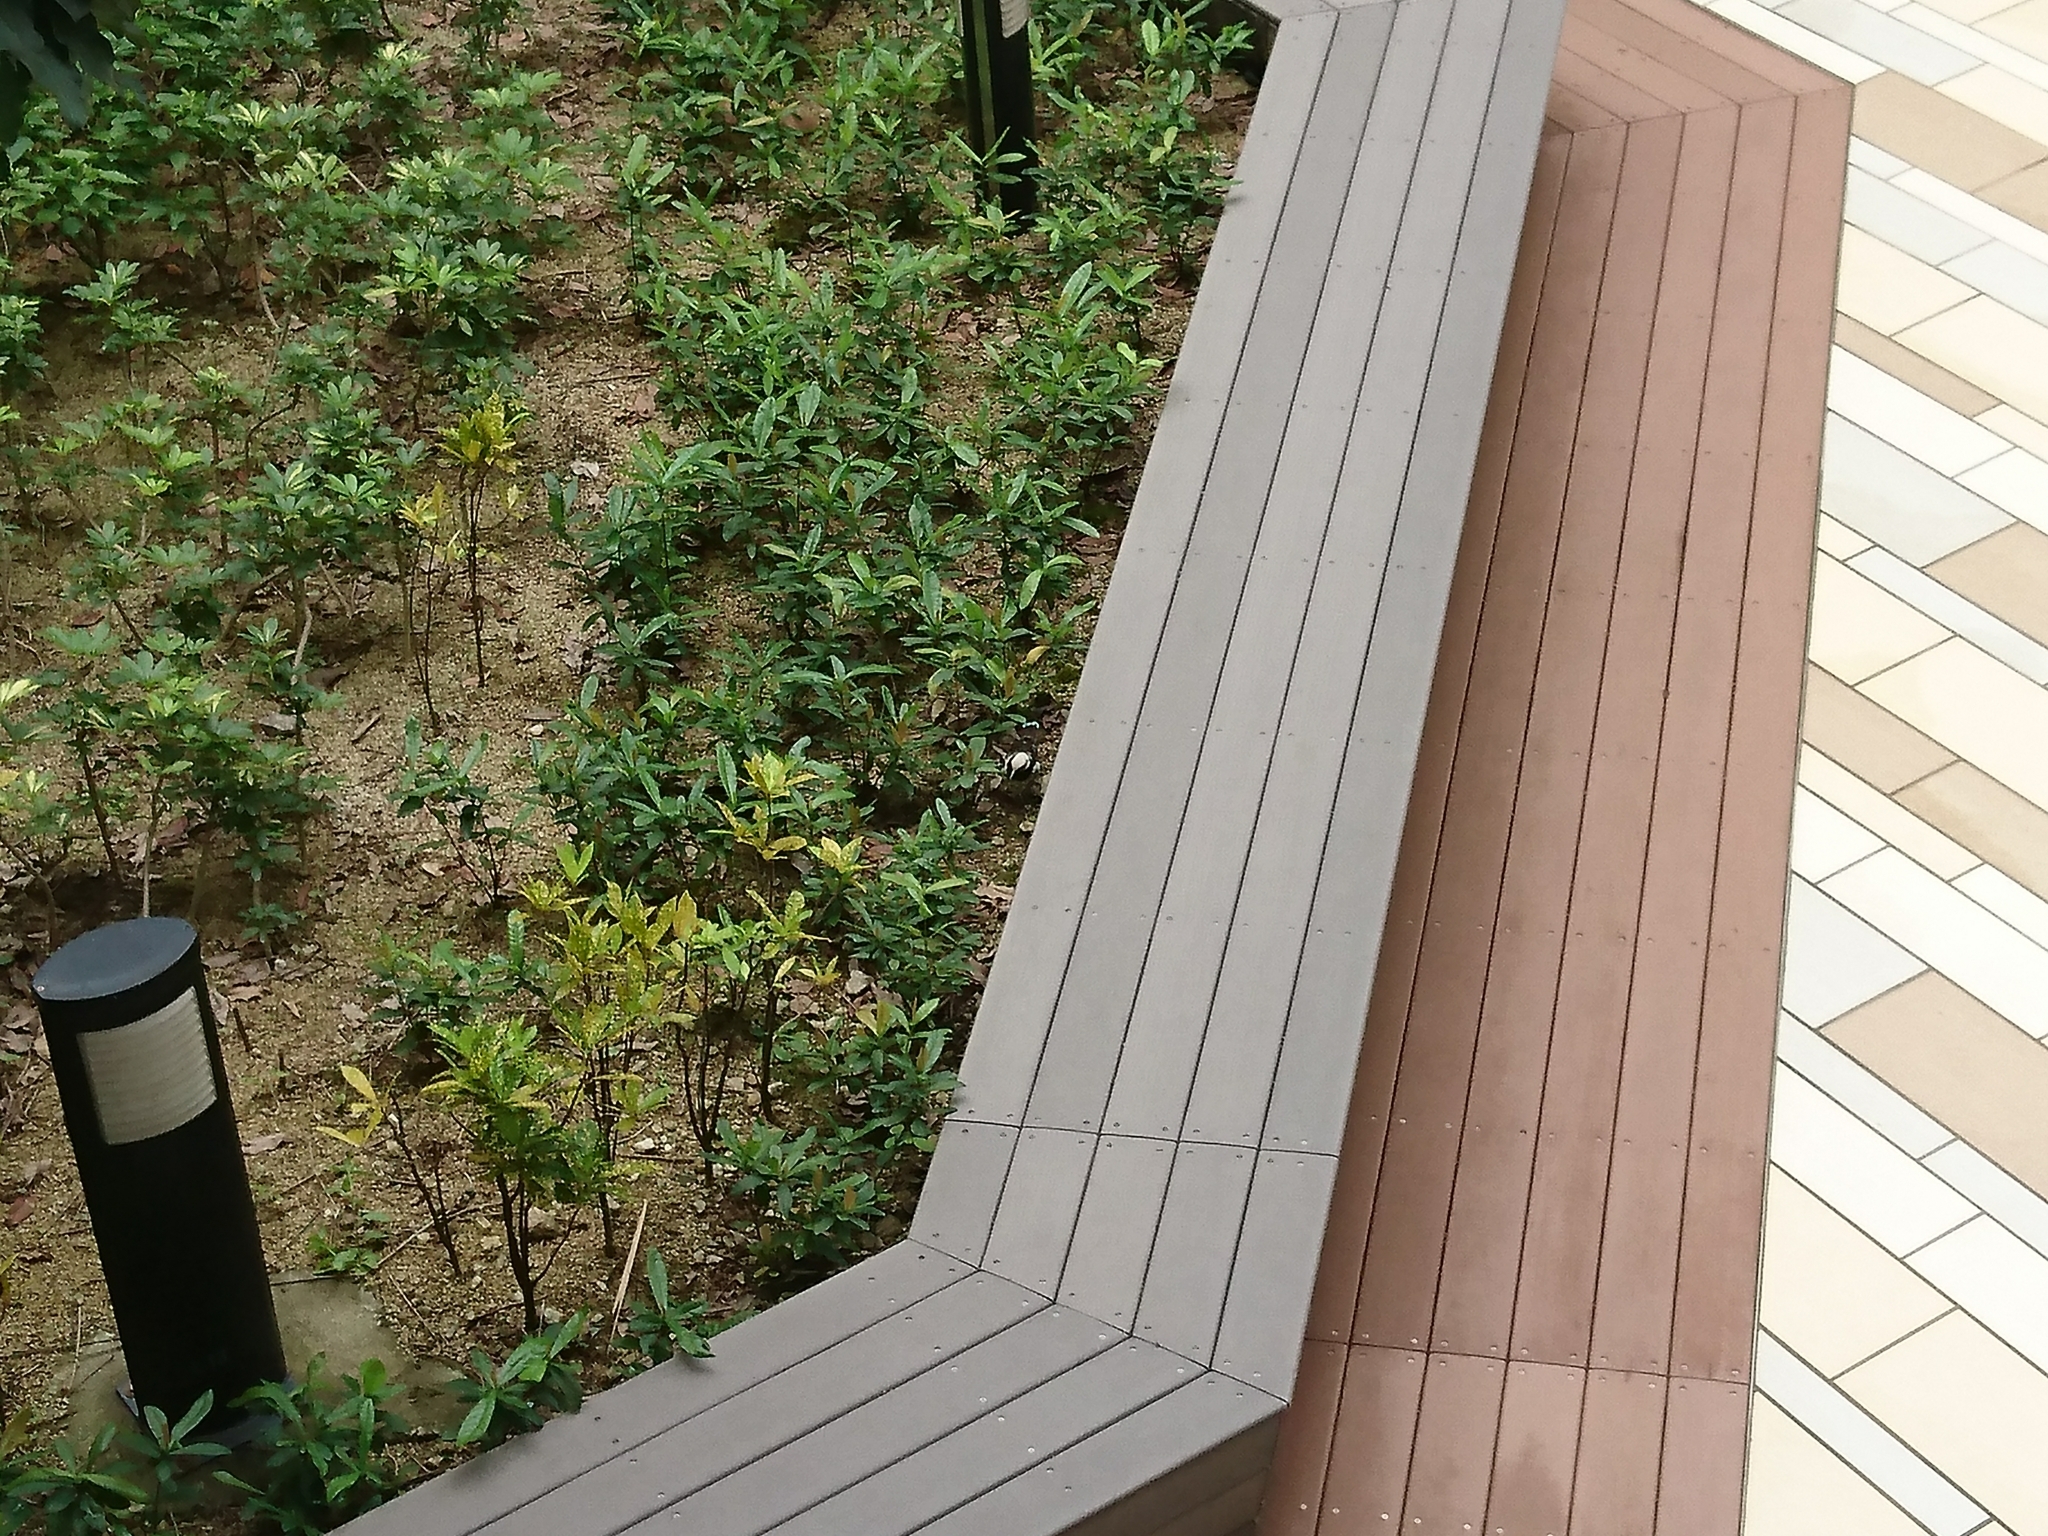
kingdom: Animalia
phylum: Chordata
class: Aves
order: Passeriformes
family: Sturnidae
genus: Gracupica
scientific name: Gracupica nigricollis
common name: Black-collared starling
